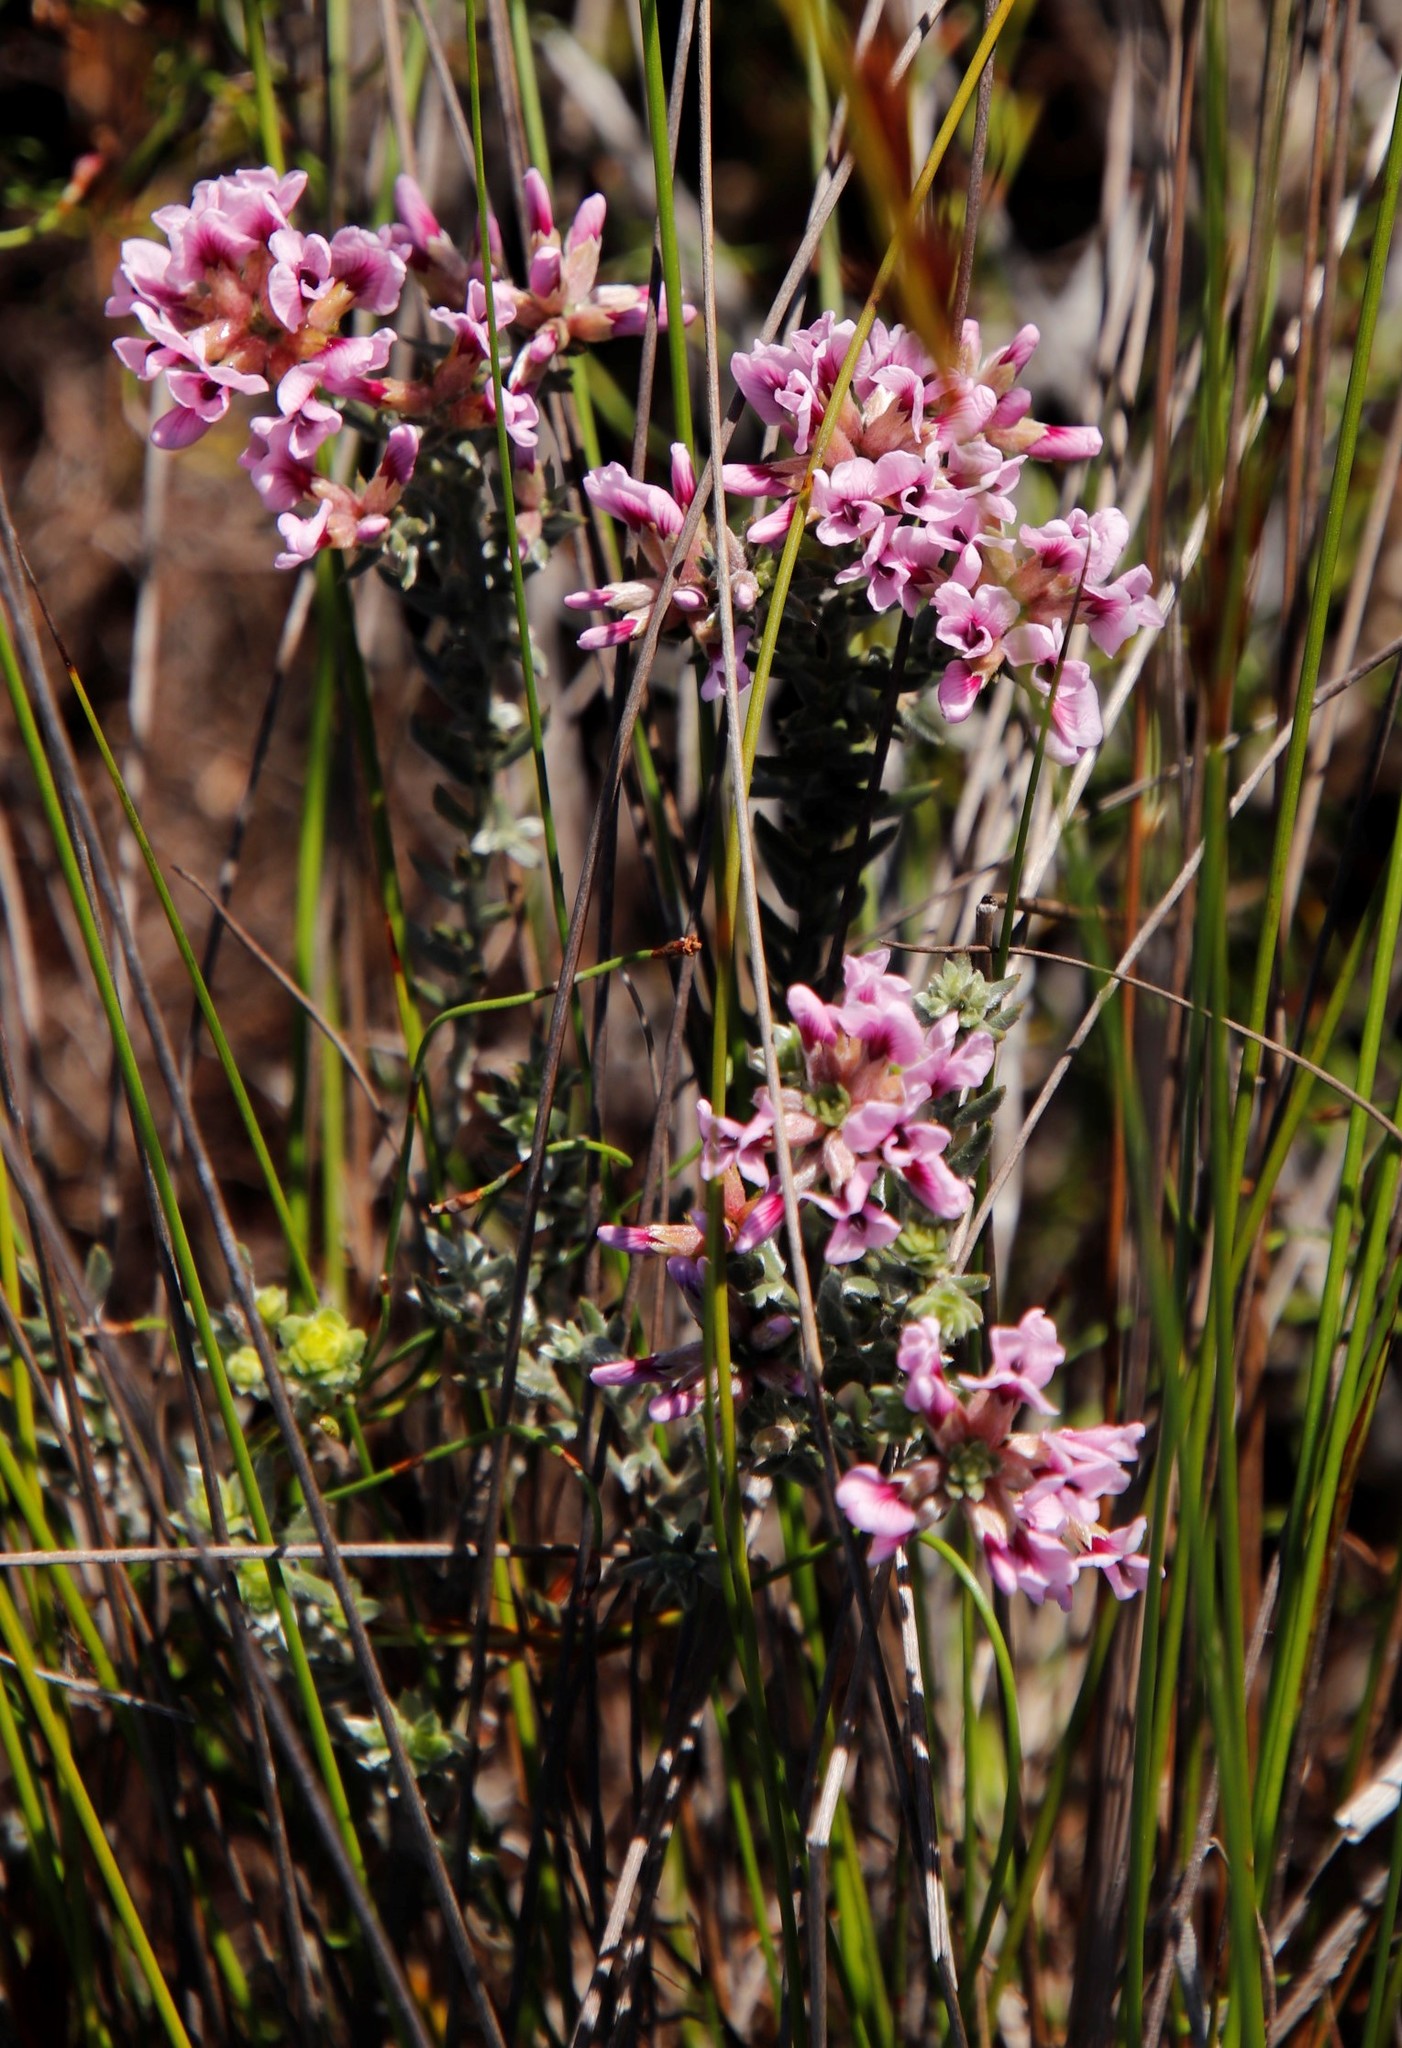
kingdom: Plantae
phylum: Tracheophyta
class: Magnoliopsida
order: Fabales
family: Fabaceae
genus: Amphithalea
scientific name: Amphithalea ericifolia
